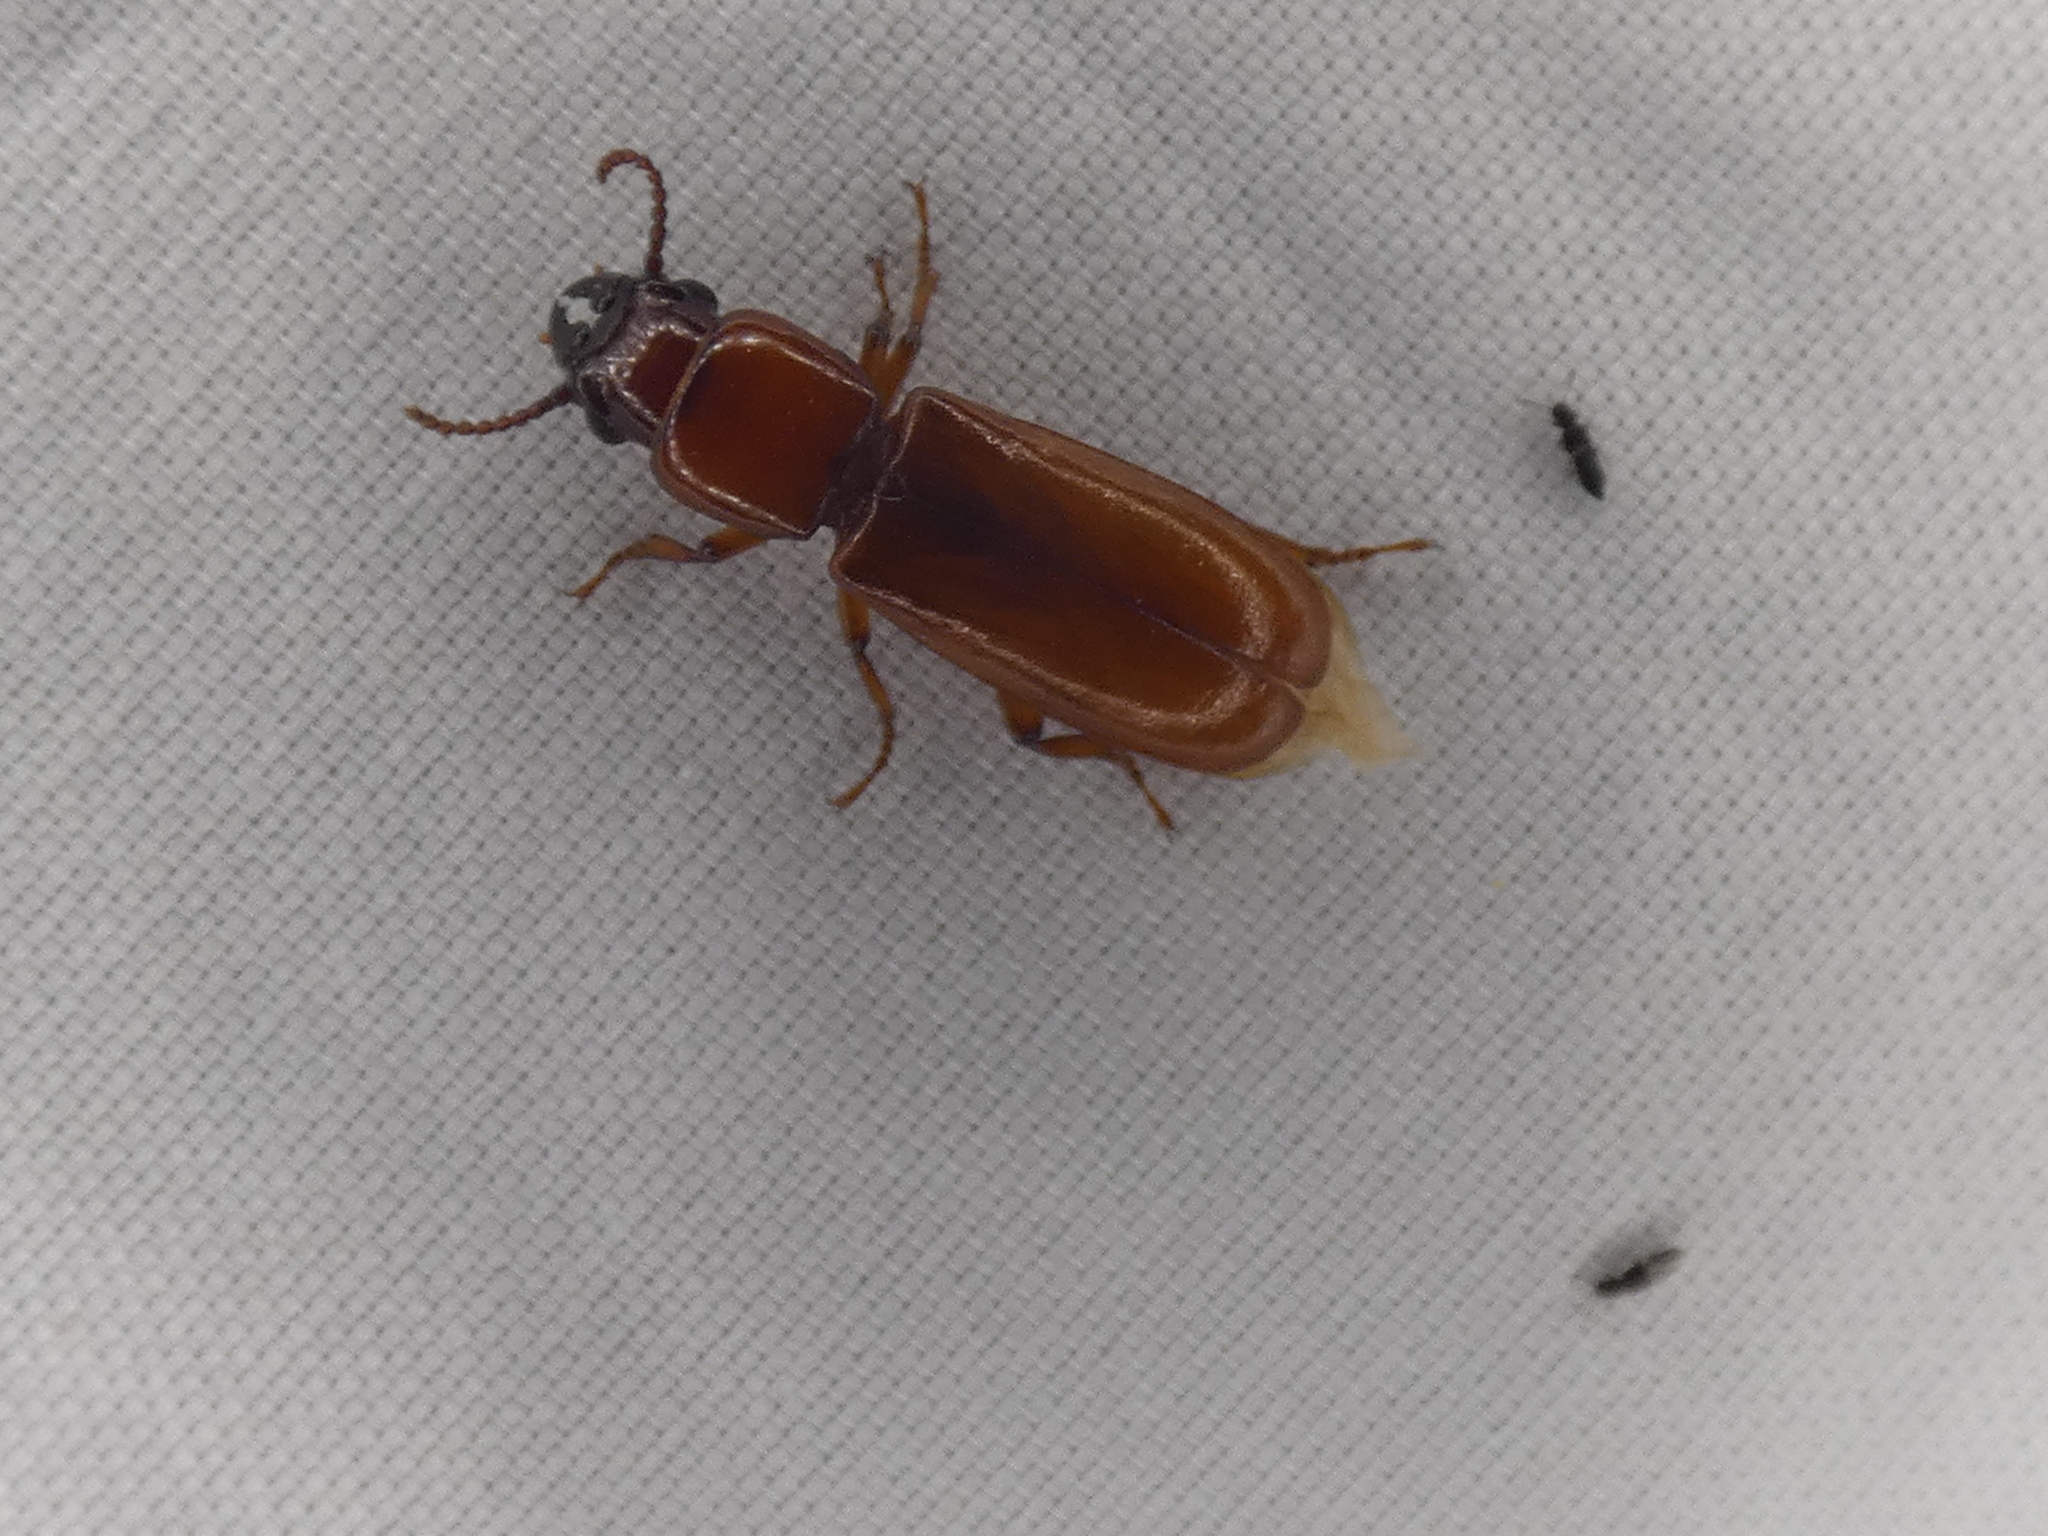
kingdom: Animalia
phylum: Arthropoda
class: Insecta
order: Coleoptera
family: Cerambycidae
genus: Parandra
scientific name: Parandra polita
